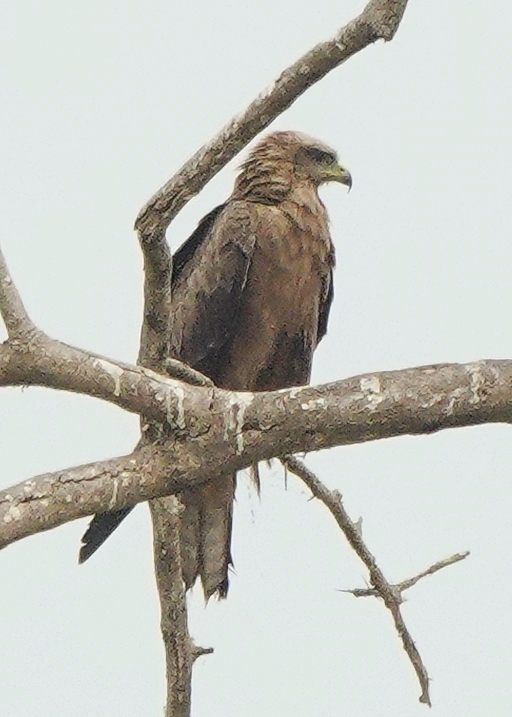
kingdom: Animalia
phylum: Chordata
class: Aves
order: Accipitriformes
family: Accipitridae
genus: Milvus
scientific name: Milvus migrans
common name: Black kite
